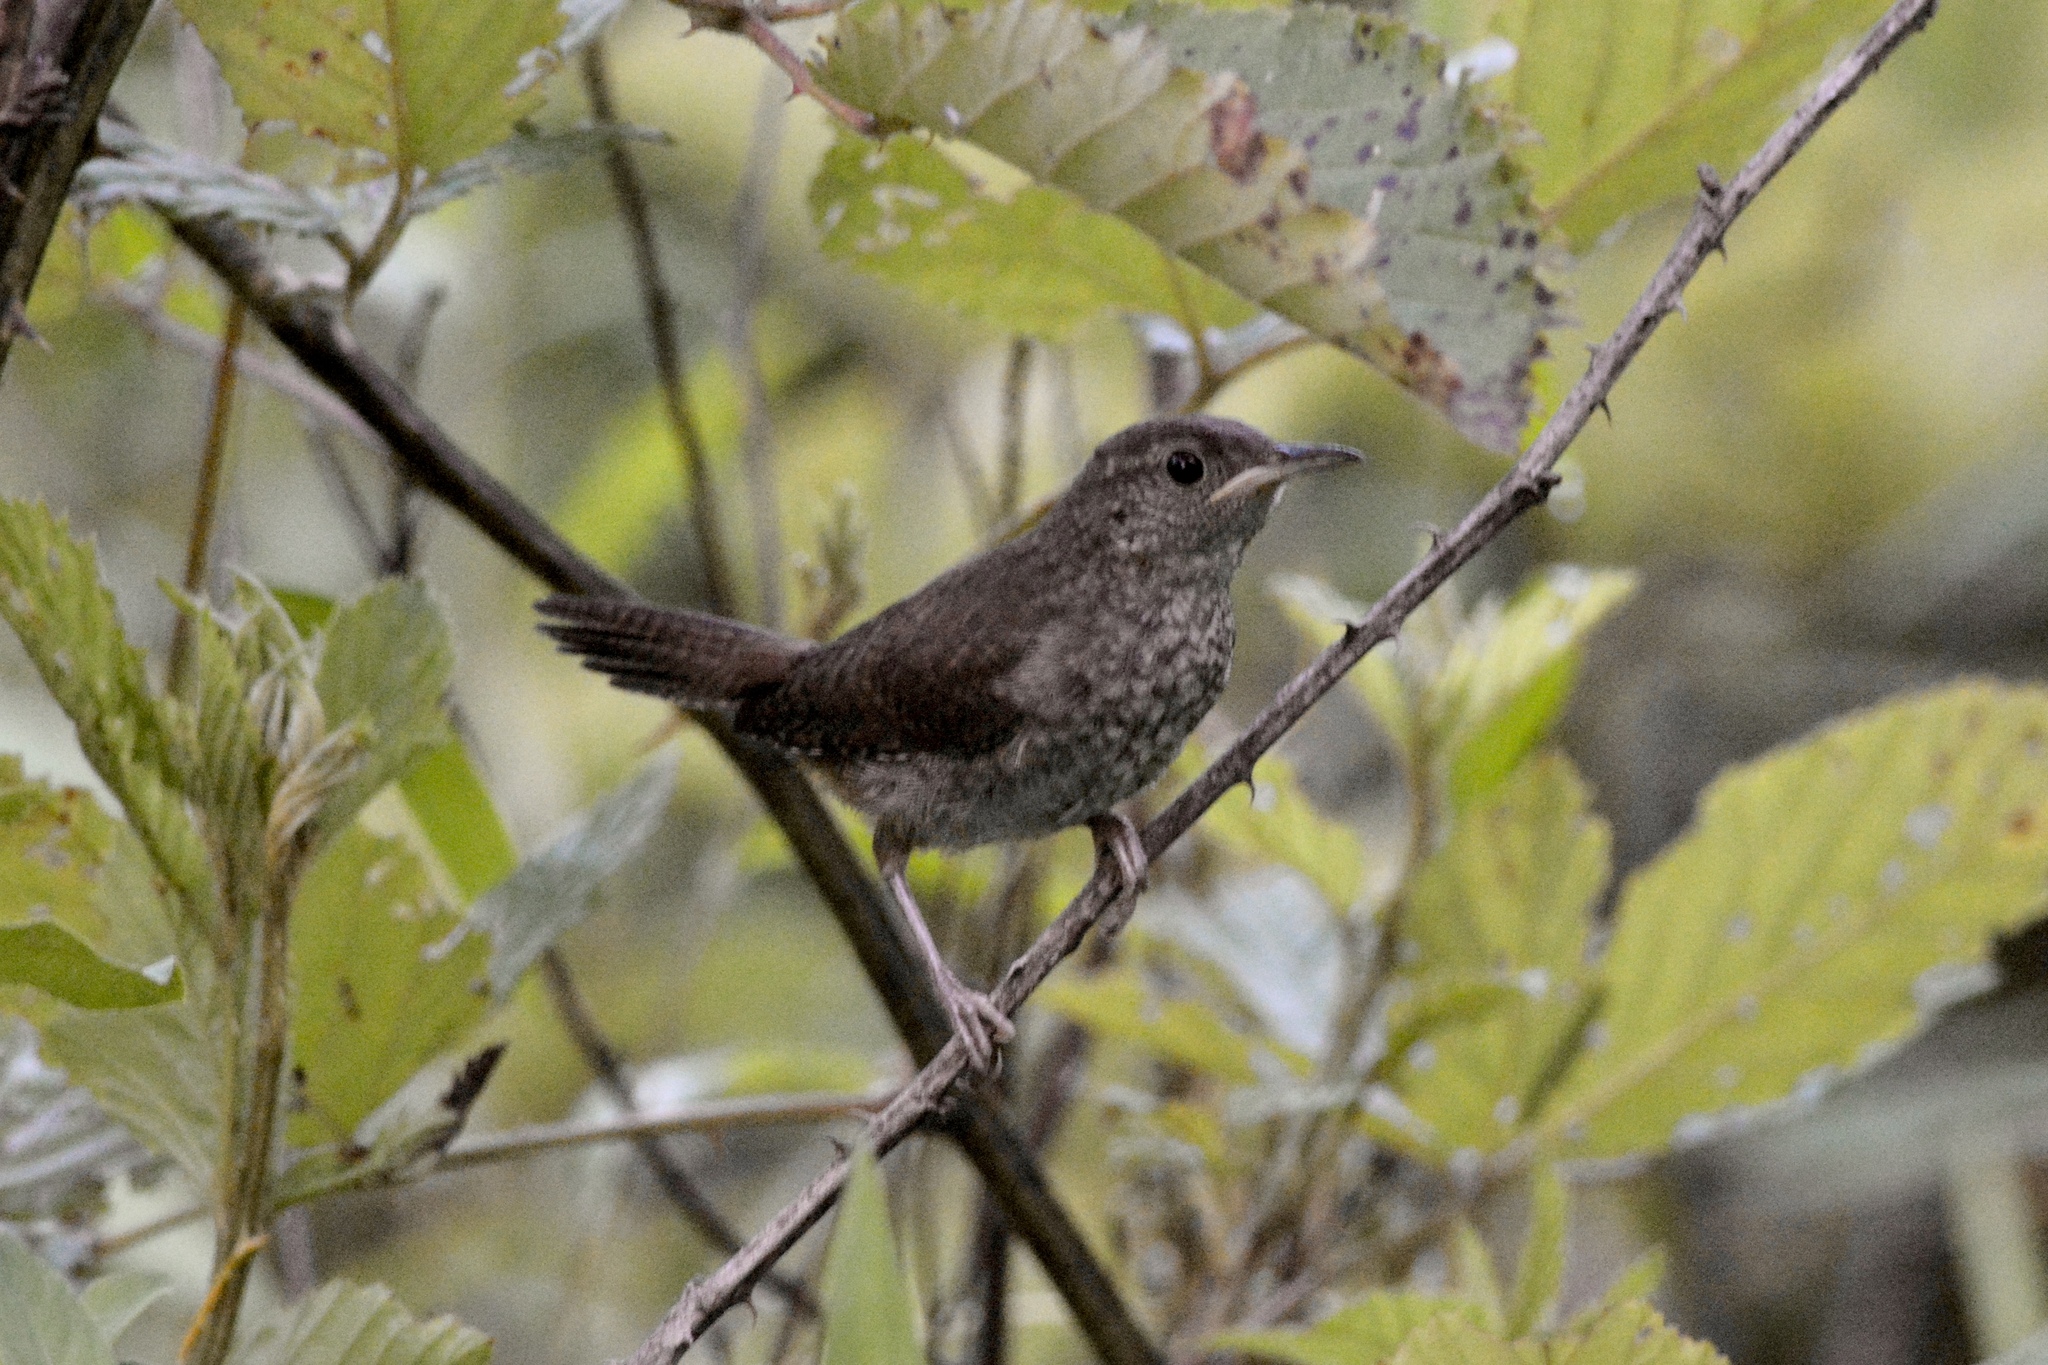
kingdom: Animalia
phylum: Chordata
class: Aves
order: Passeriformes
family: Troglodytidae
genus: Troglodytes
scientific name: Troglodytes aedon
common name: House wren
